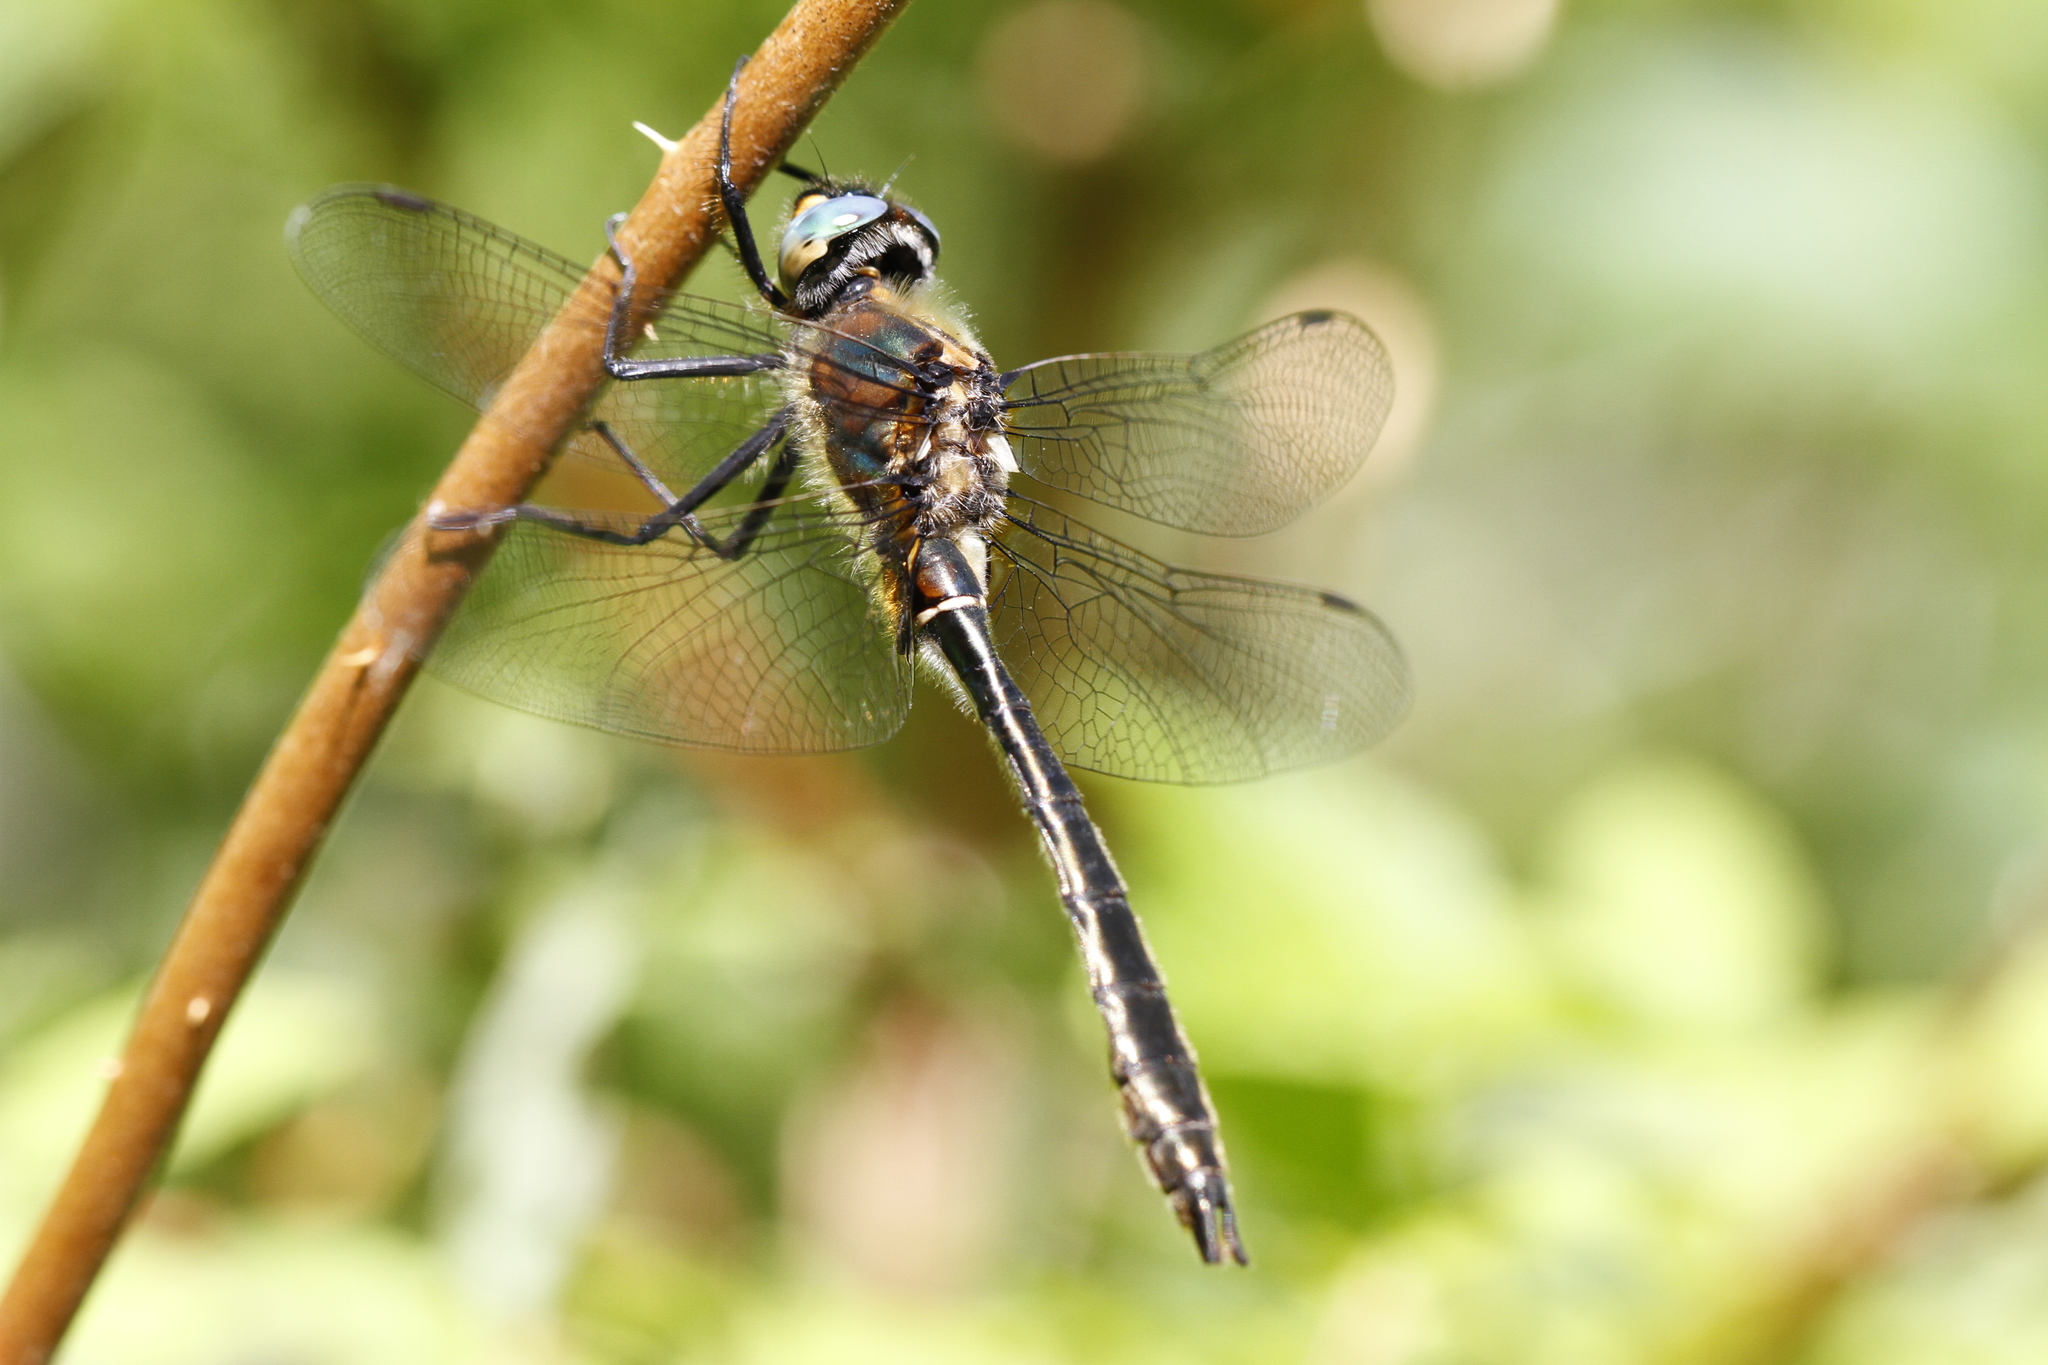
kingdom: Animalia
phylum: Arthropoda
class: Insecta
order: Odonata
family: Corduliidae
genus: Cordulia
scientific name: Cordulia shurtleffii
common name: American emerald
